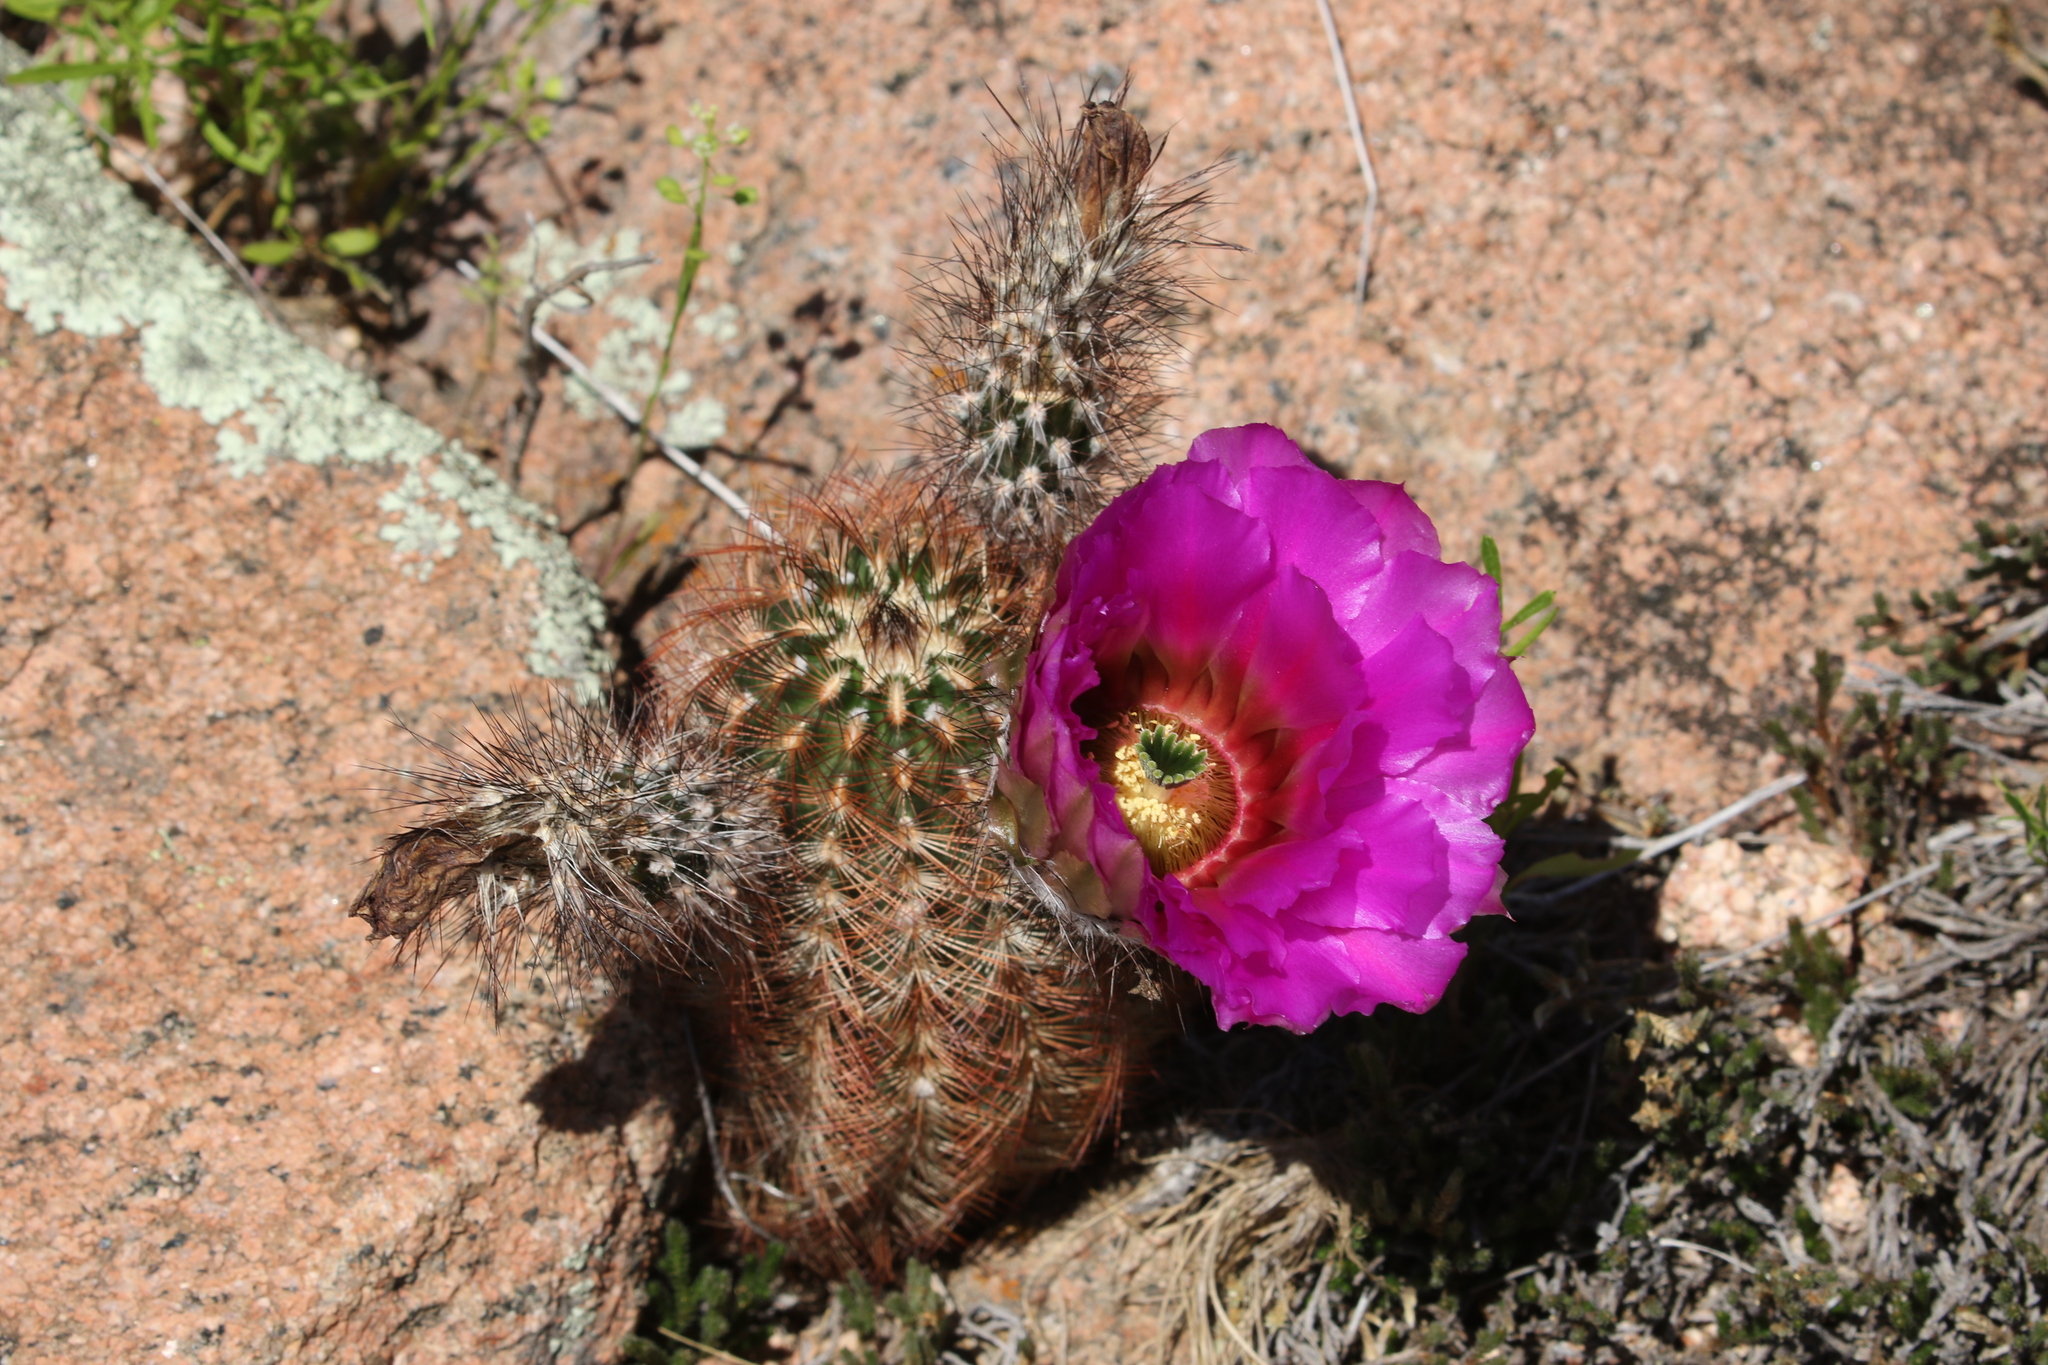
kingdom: Plantae
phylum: Tracheophyta
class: Magnoliopsida
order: Caryophyllales
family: Cactaceae
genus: Echinocereus
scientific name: Echinocereus reichenbachii
